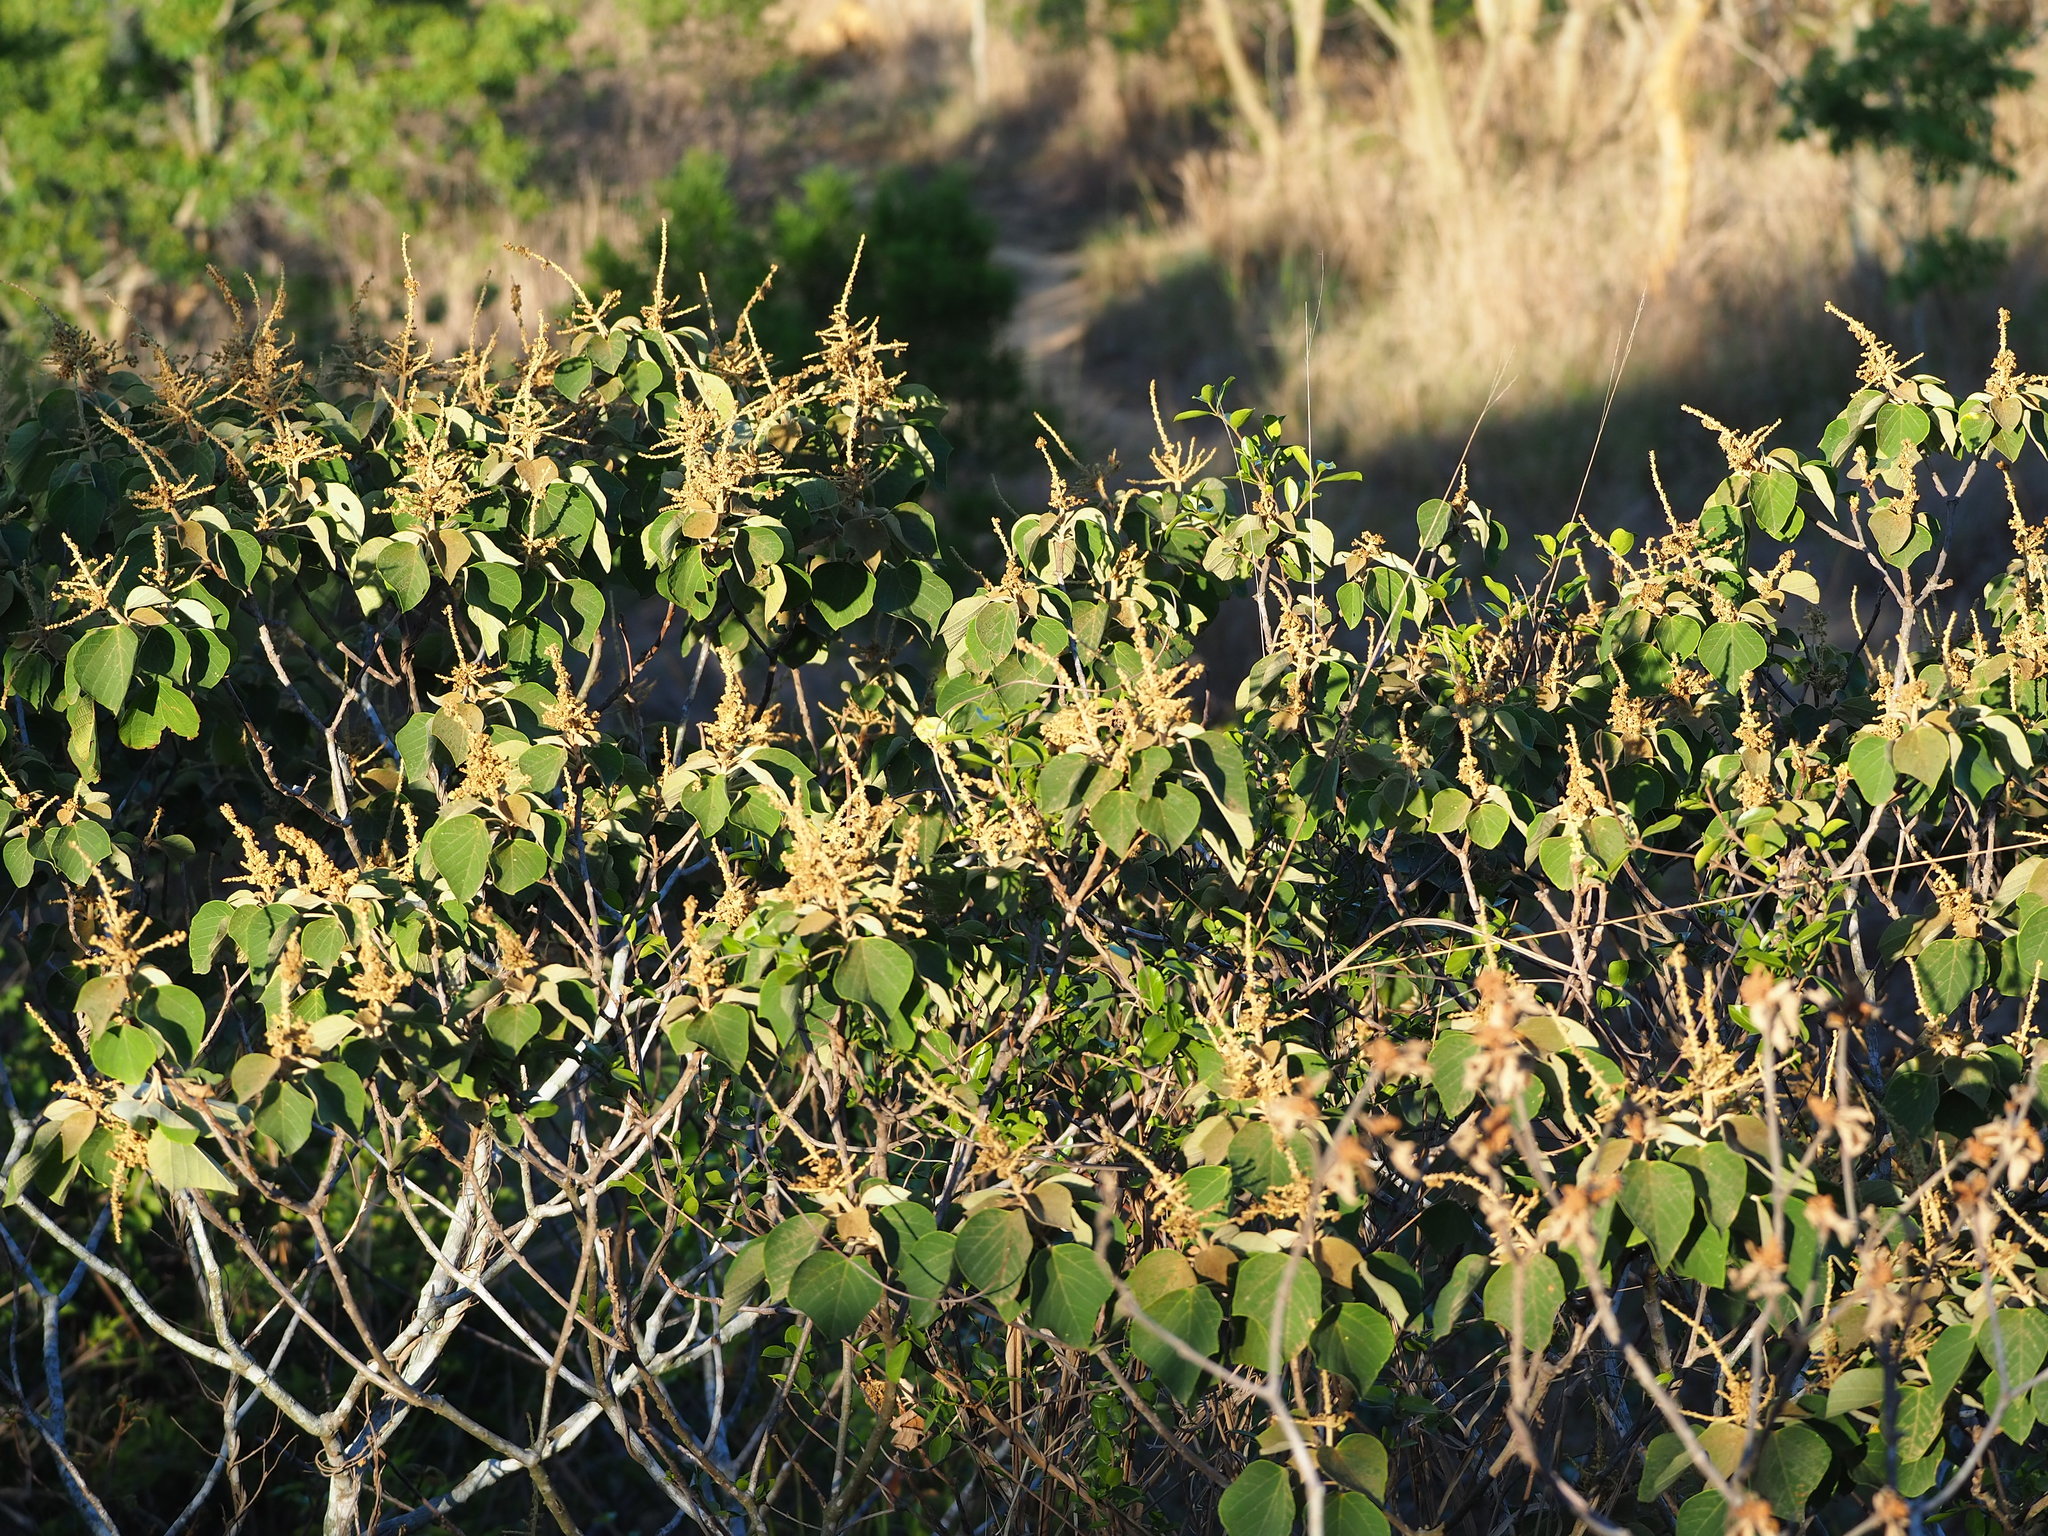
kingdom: Plantae
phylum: Tracheophyta
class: Magnoliopsida
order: Malpighiales
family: Euphorbiaceae
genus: Mallotus
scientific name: Mallotus paniculatus
